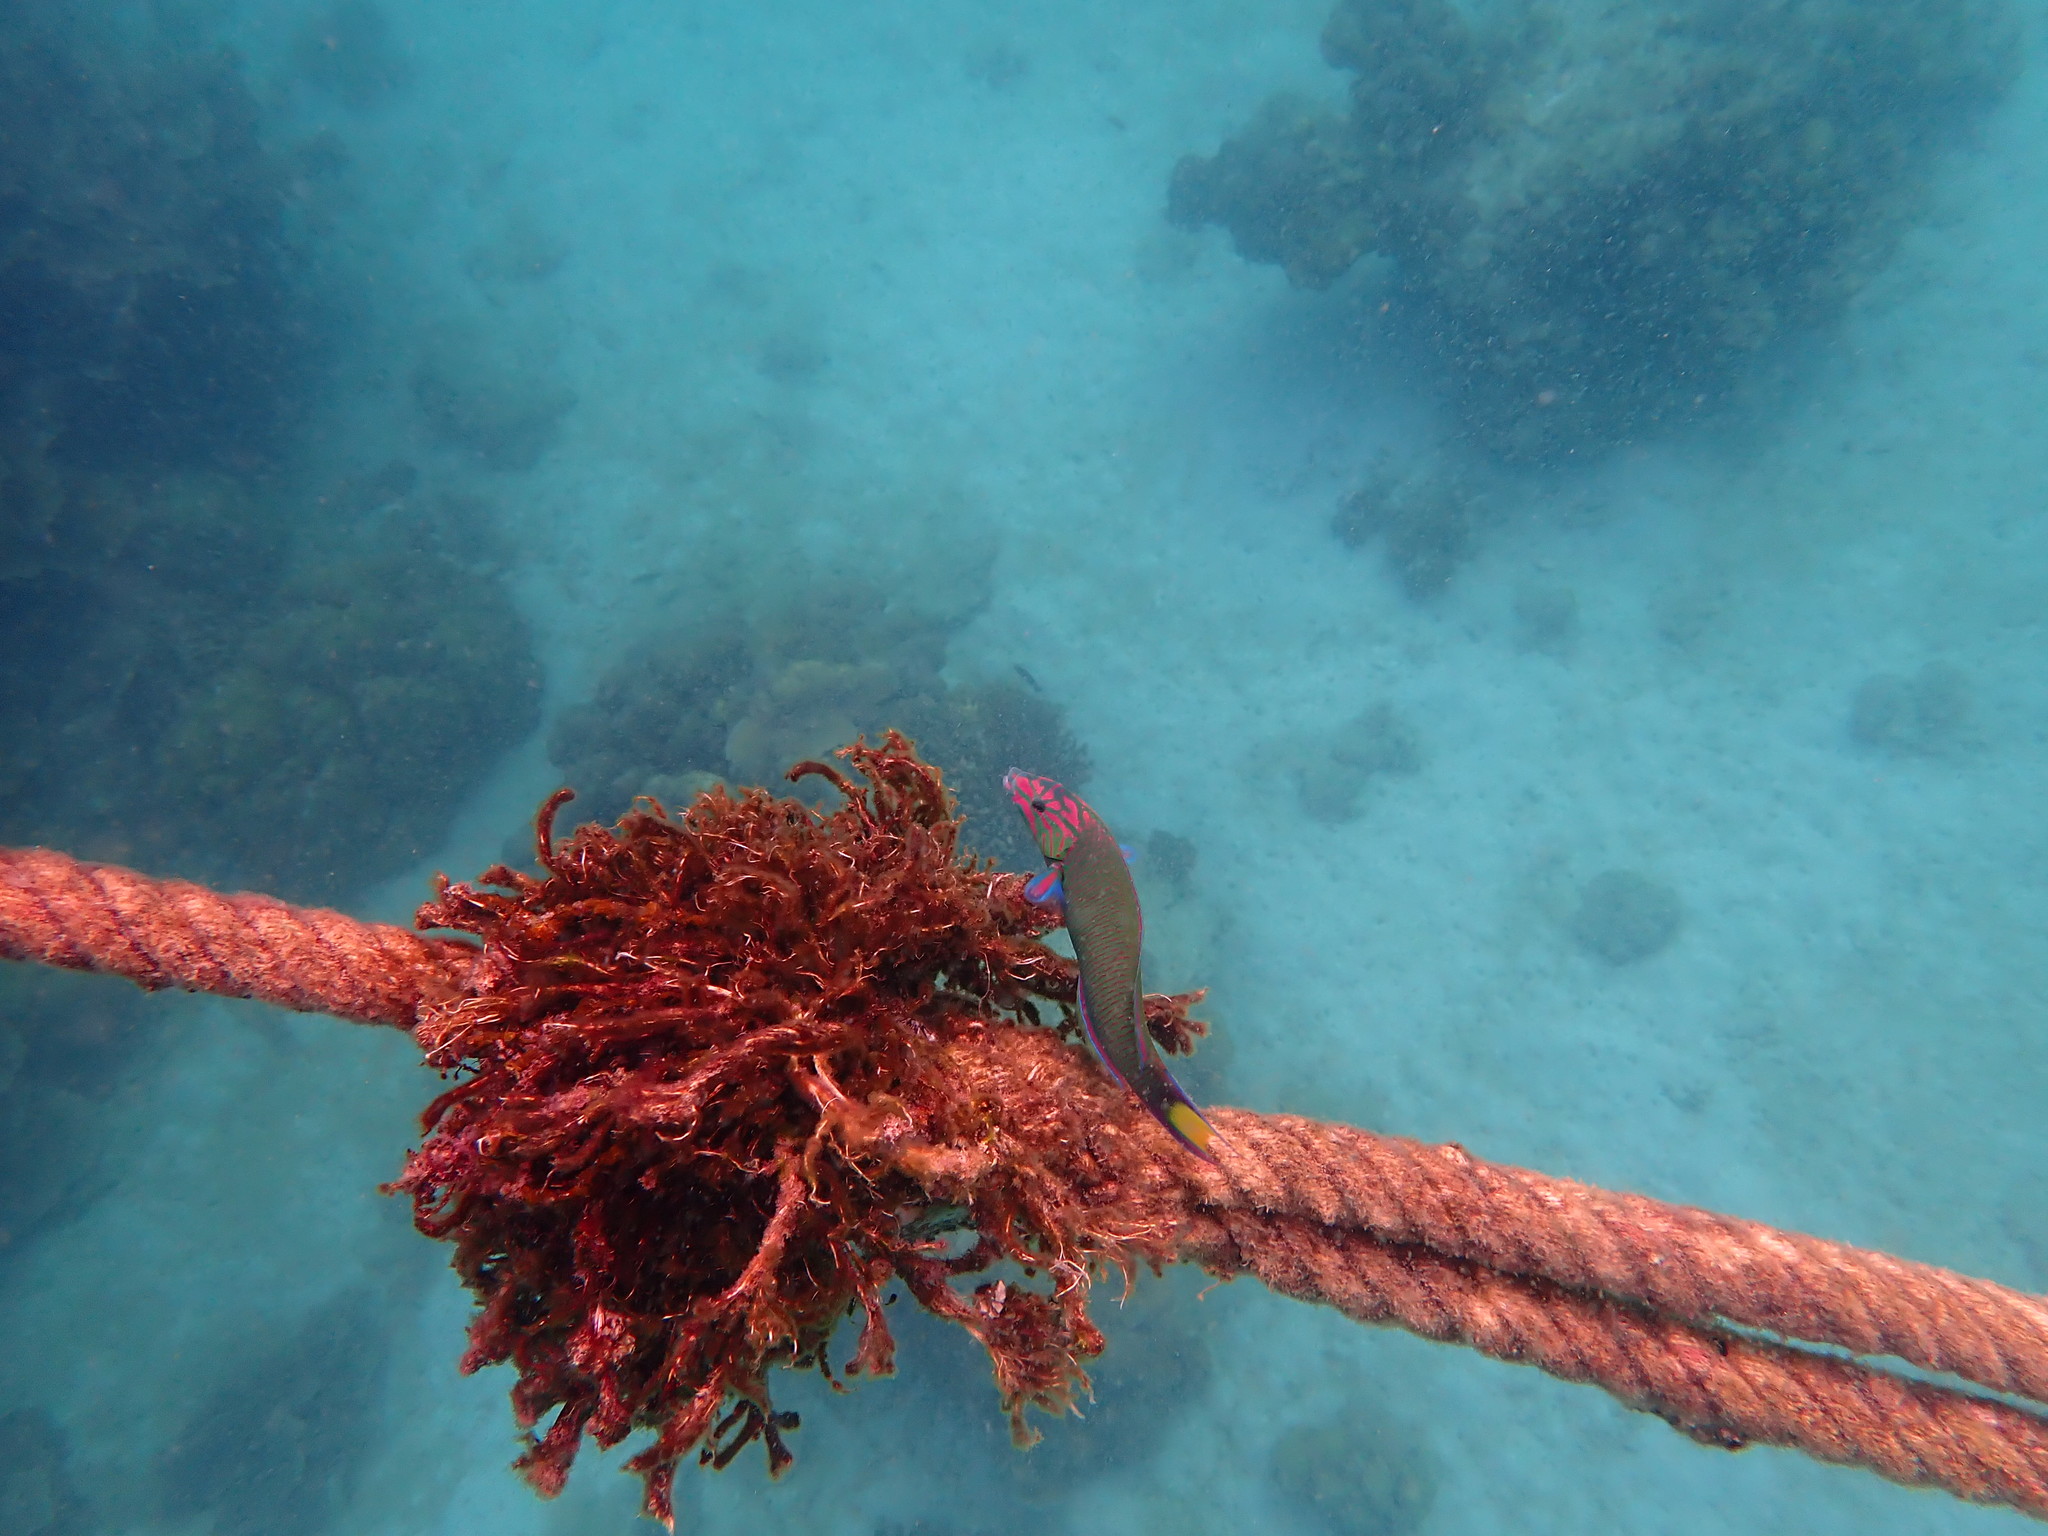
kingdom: Animalia
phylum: Chordata
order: Perciformes
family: Labridae
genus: Thalassoma
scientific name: Thalassoma lunare
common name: Blue wrasse
